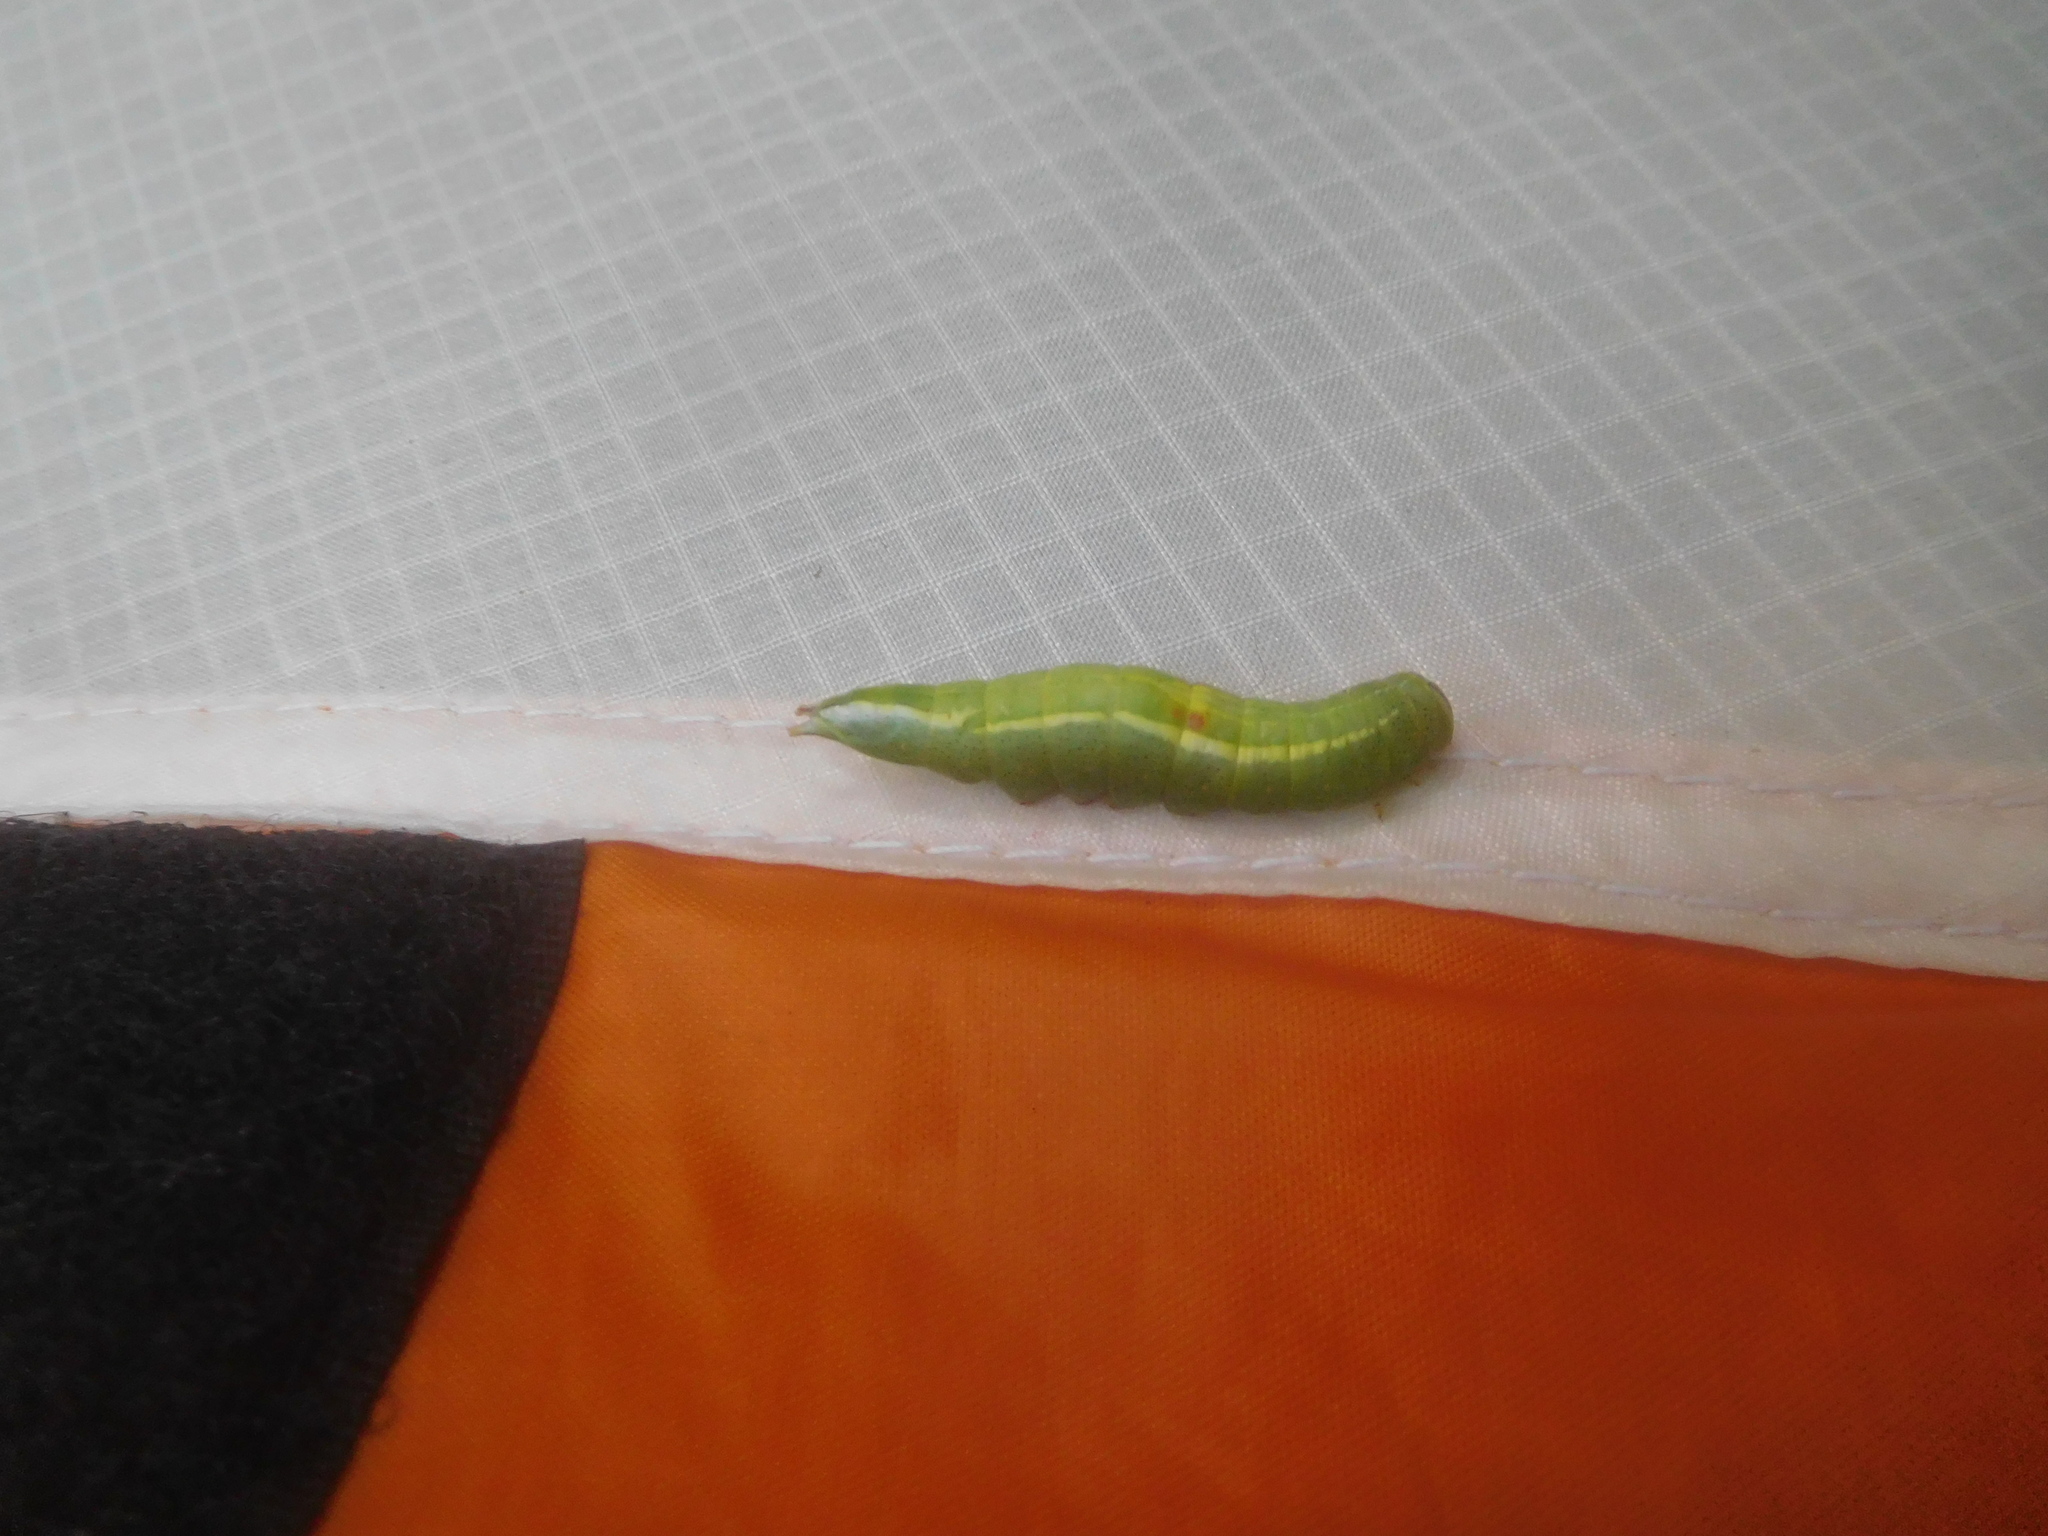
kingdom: Animalia
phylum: Arthropoda
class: Insecta
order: Lepidoptera
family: Notodontidae
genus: Disphragis
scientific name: Disphragis Cecrita guttivitta
